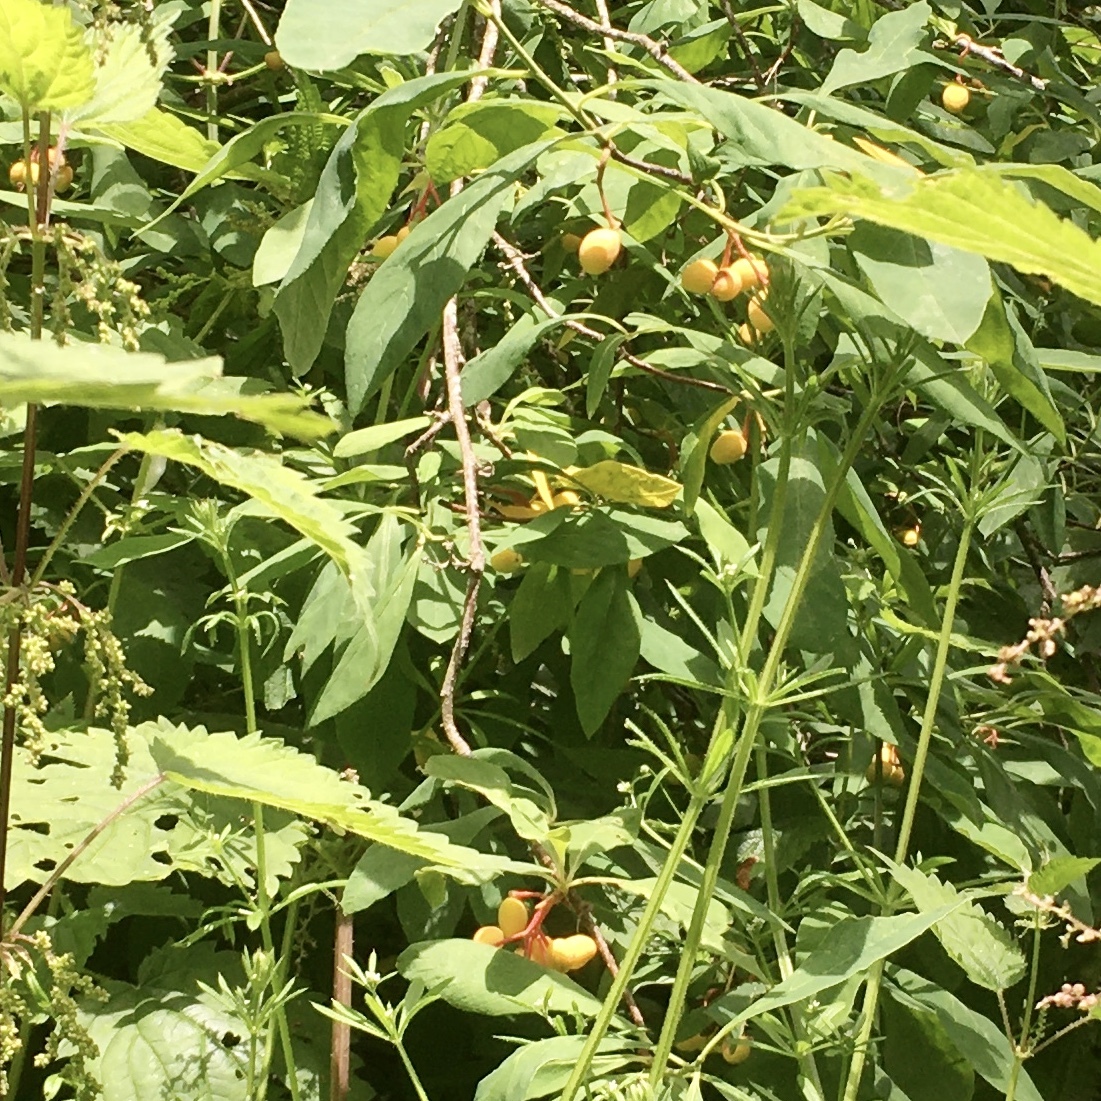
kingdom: Plantae
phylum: Tracheophyta
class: Magnoliopsida
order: Rosales
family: Rosaceae
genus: Oemleria
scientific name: Oemleria cerasiformis
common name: Osoberry
